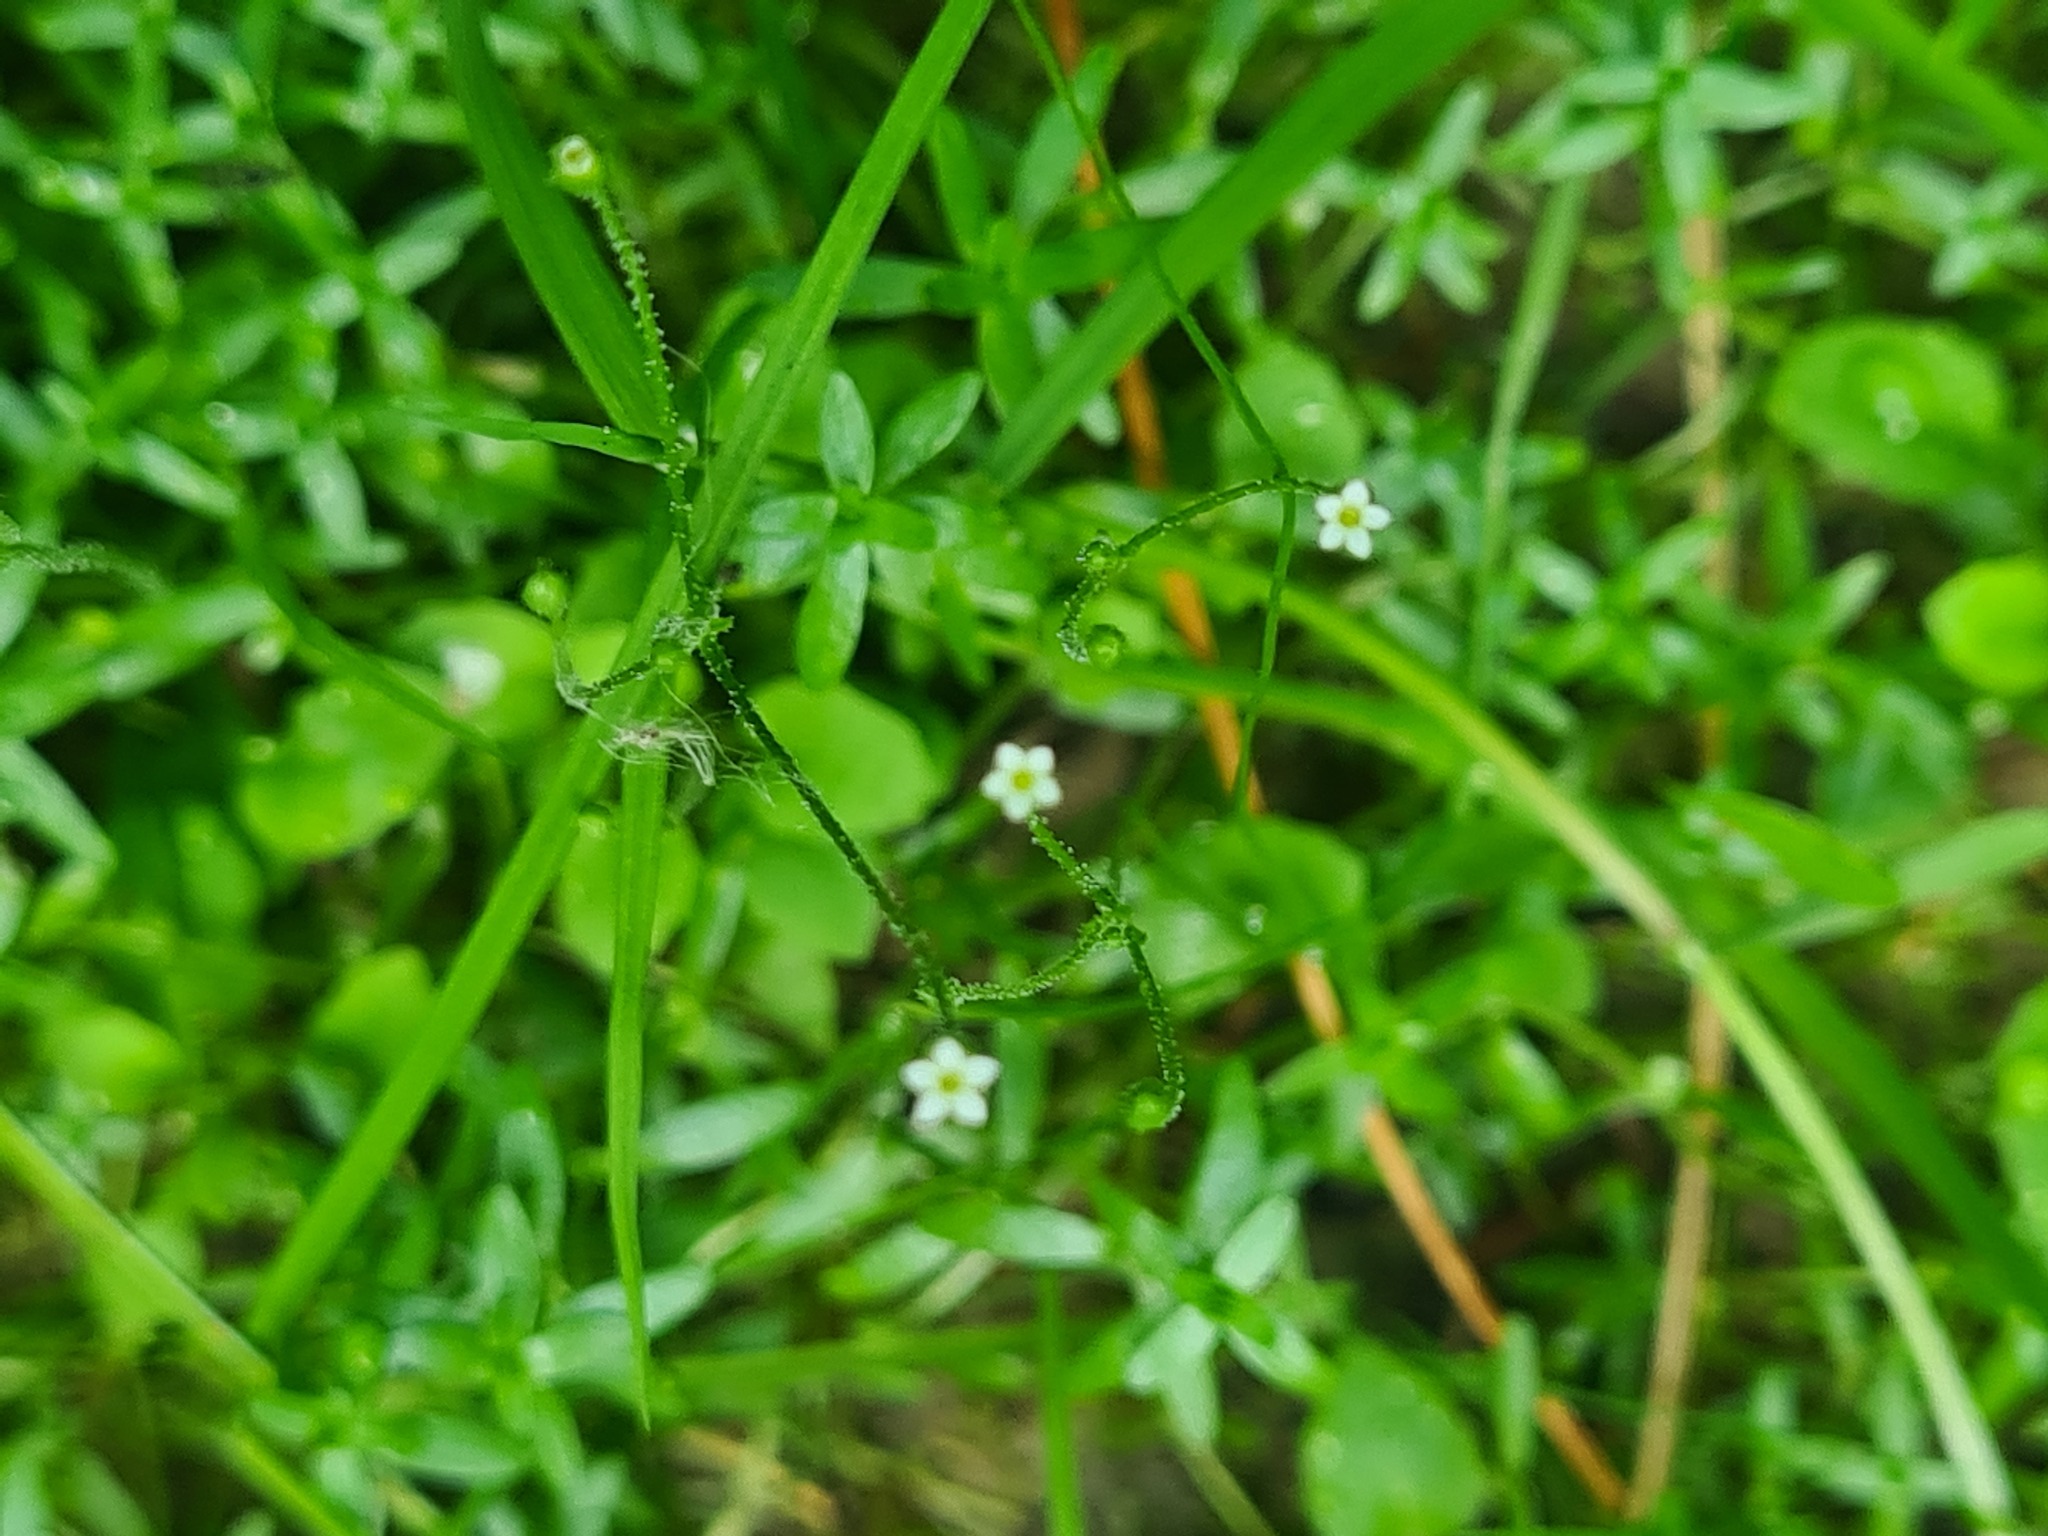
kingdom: Plantae
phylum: Tracheophyta
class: Magnoliopsida
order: Ericales
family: Primulaceae
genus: Androsace
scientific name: Androsace filiformis
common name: Filiform rock jasmine
